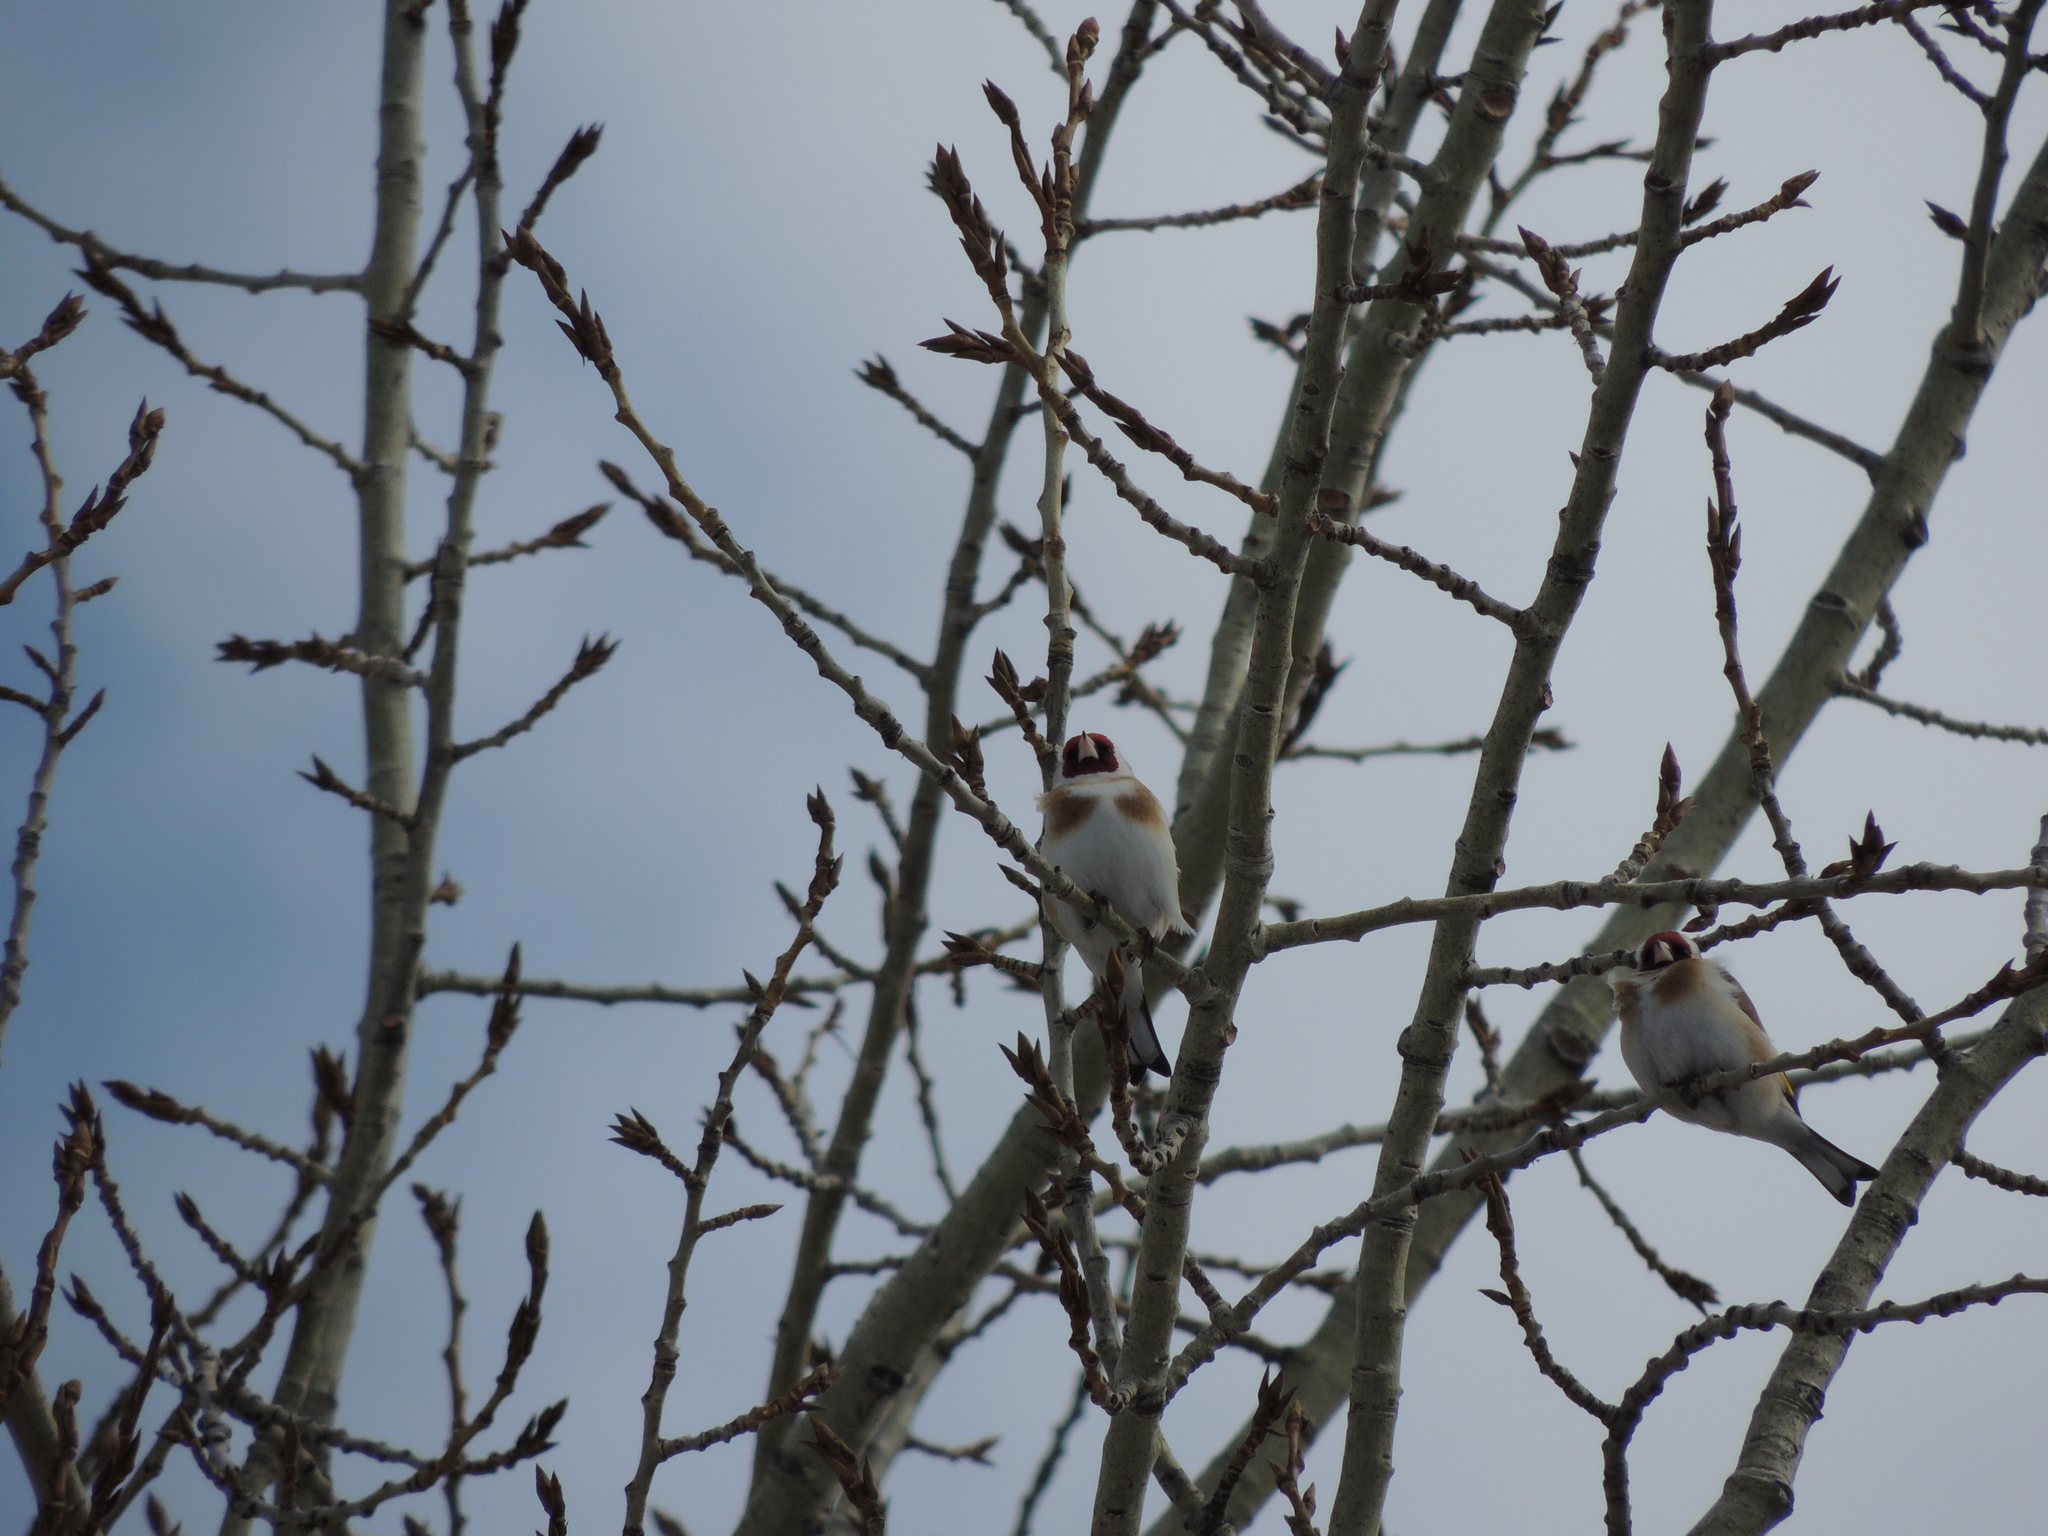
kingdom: Animalia
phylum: Chordata
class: Aves
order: Passeriformes
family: Fringillidae
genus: Carduelis
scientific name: Carduelis carduelis
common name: European goldfinch
